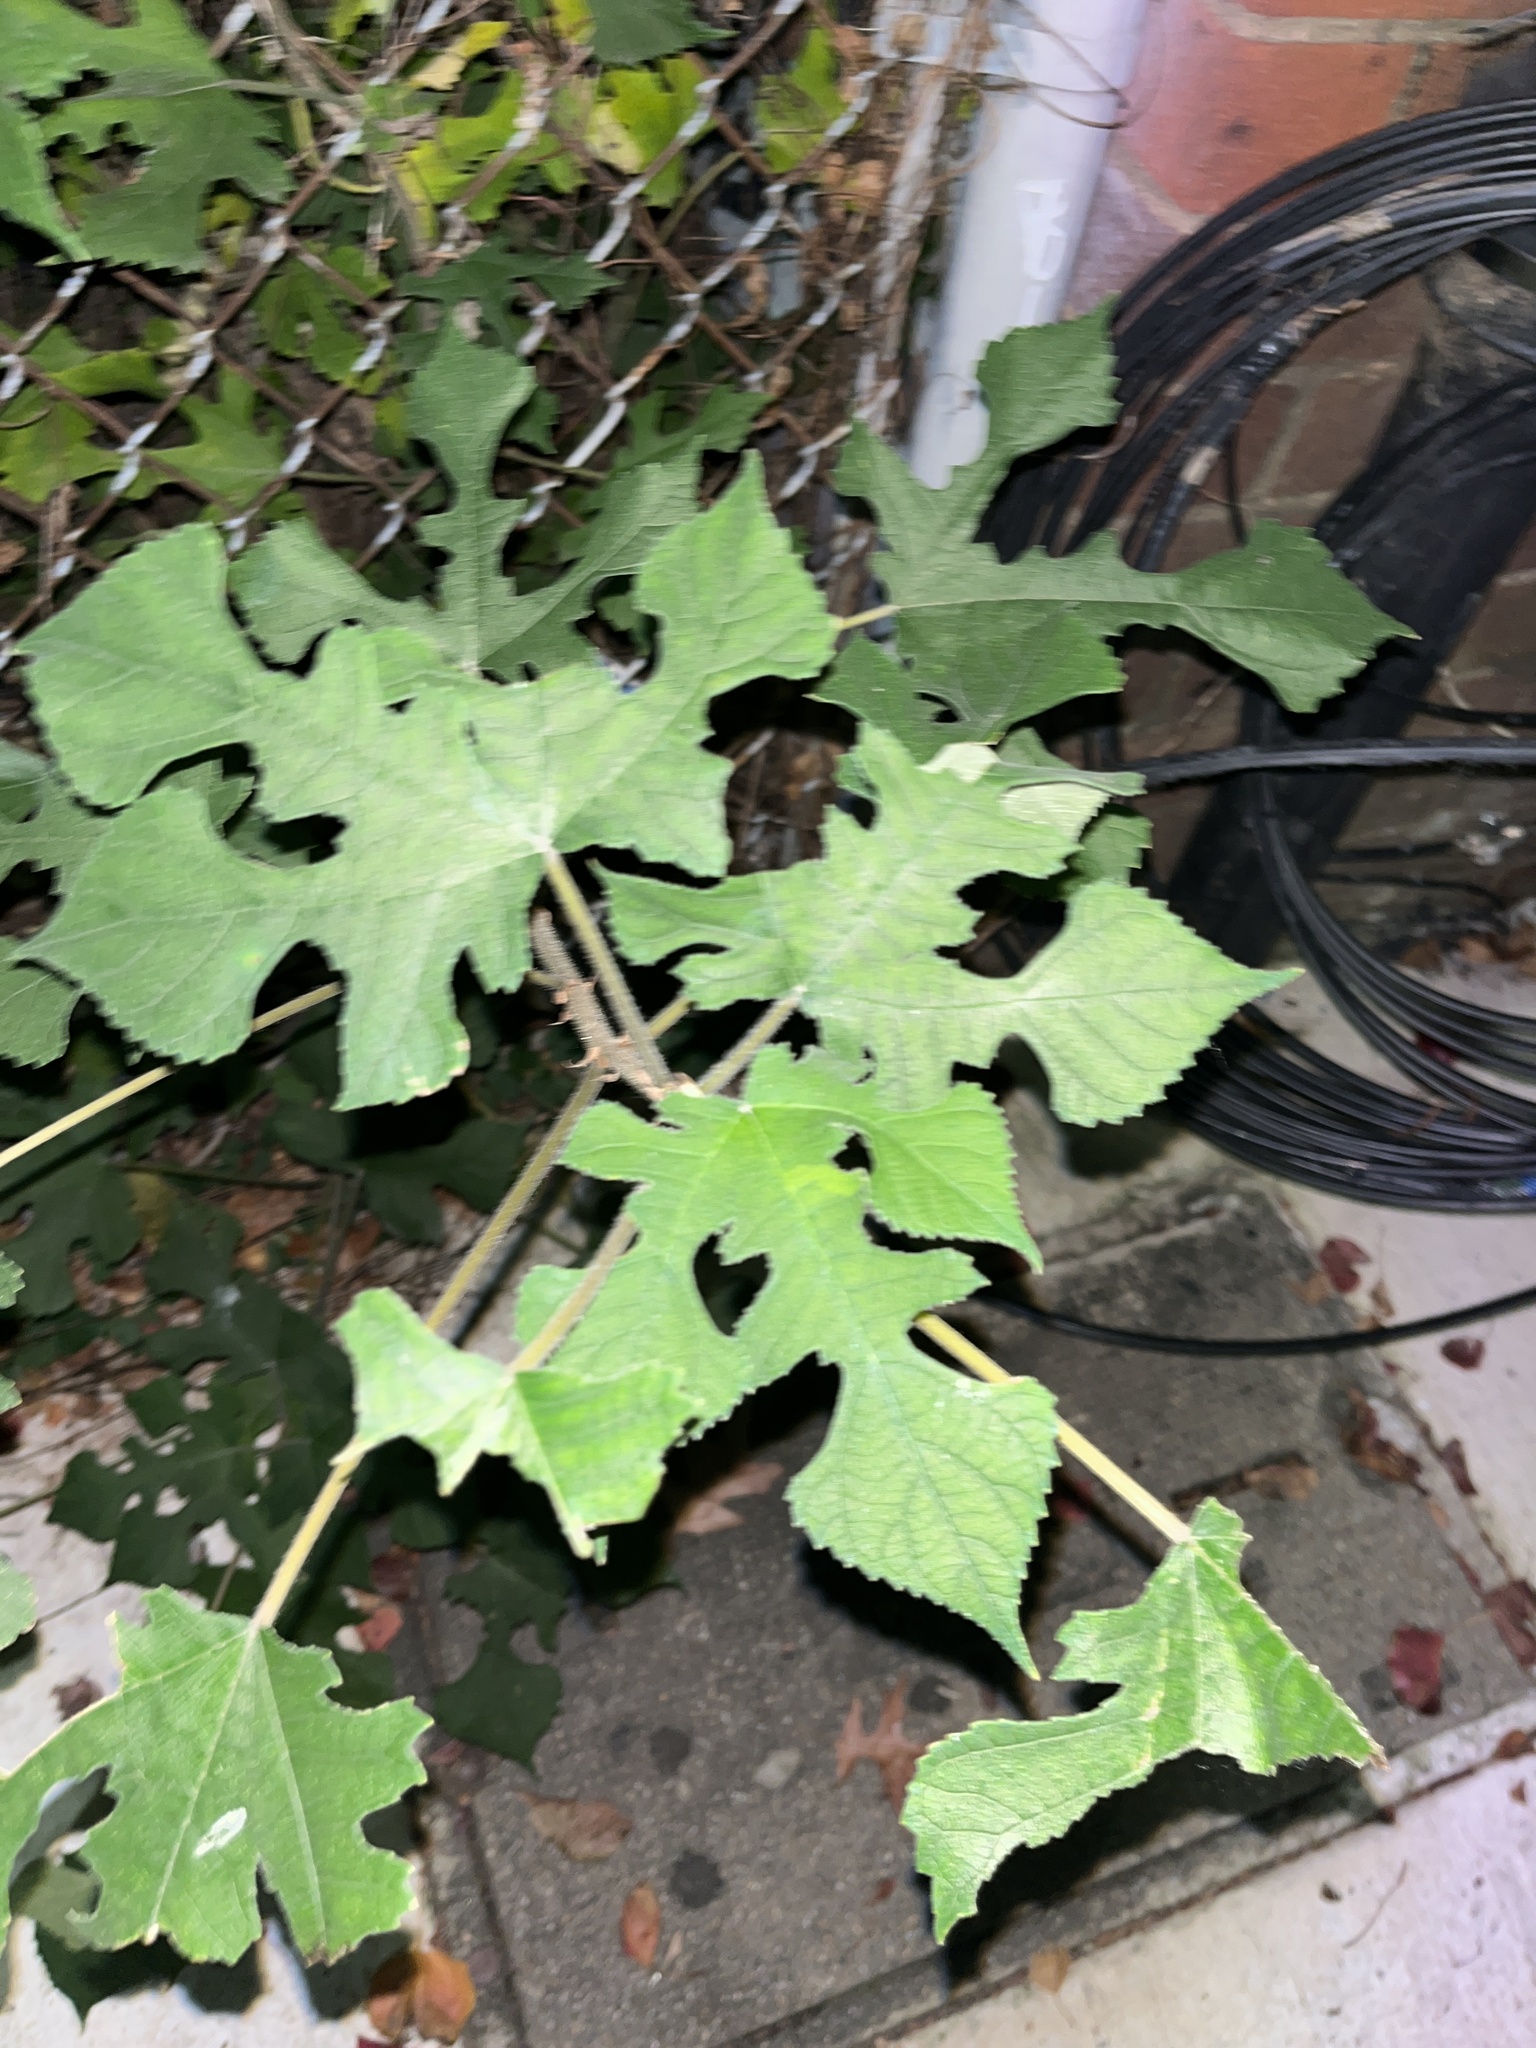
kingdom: Plantae
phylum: Tracheophyta
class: Magnoliopsida
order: Rosales
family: Moraceae
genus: Broussonetia
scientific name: Broussonetia papyrifera
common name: Paper mulberry
